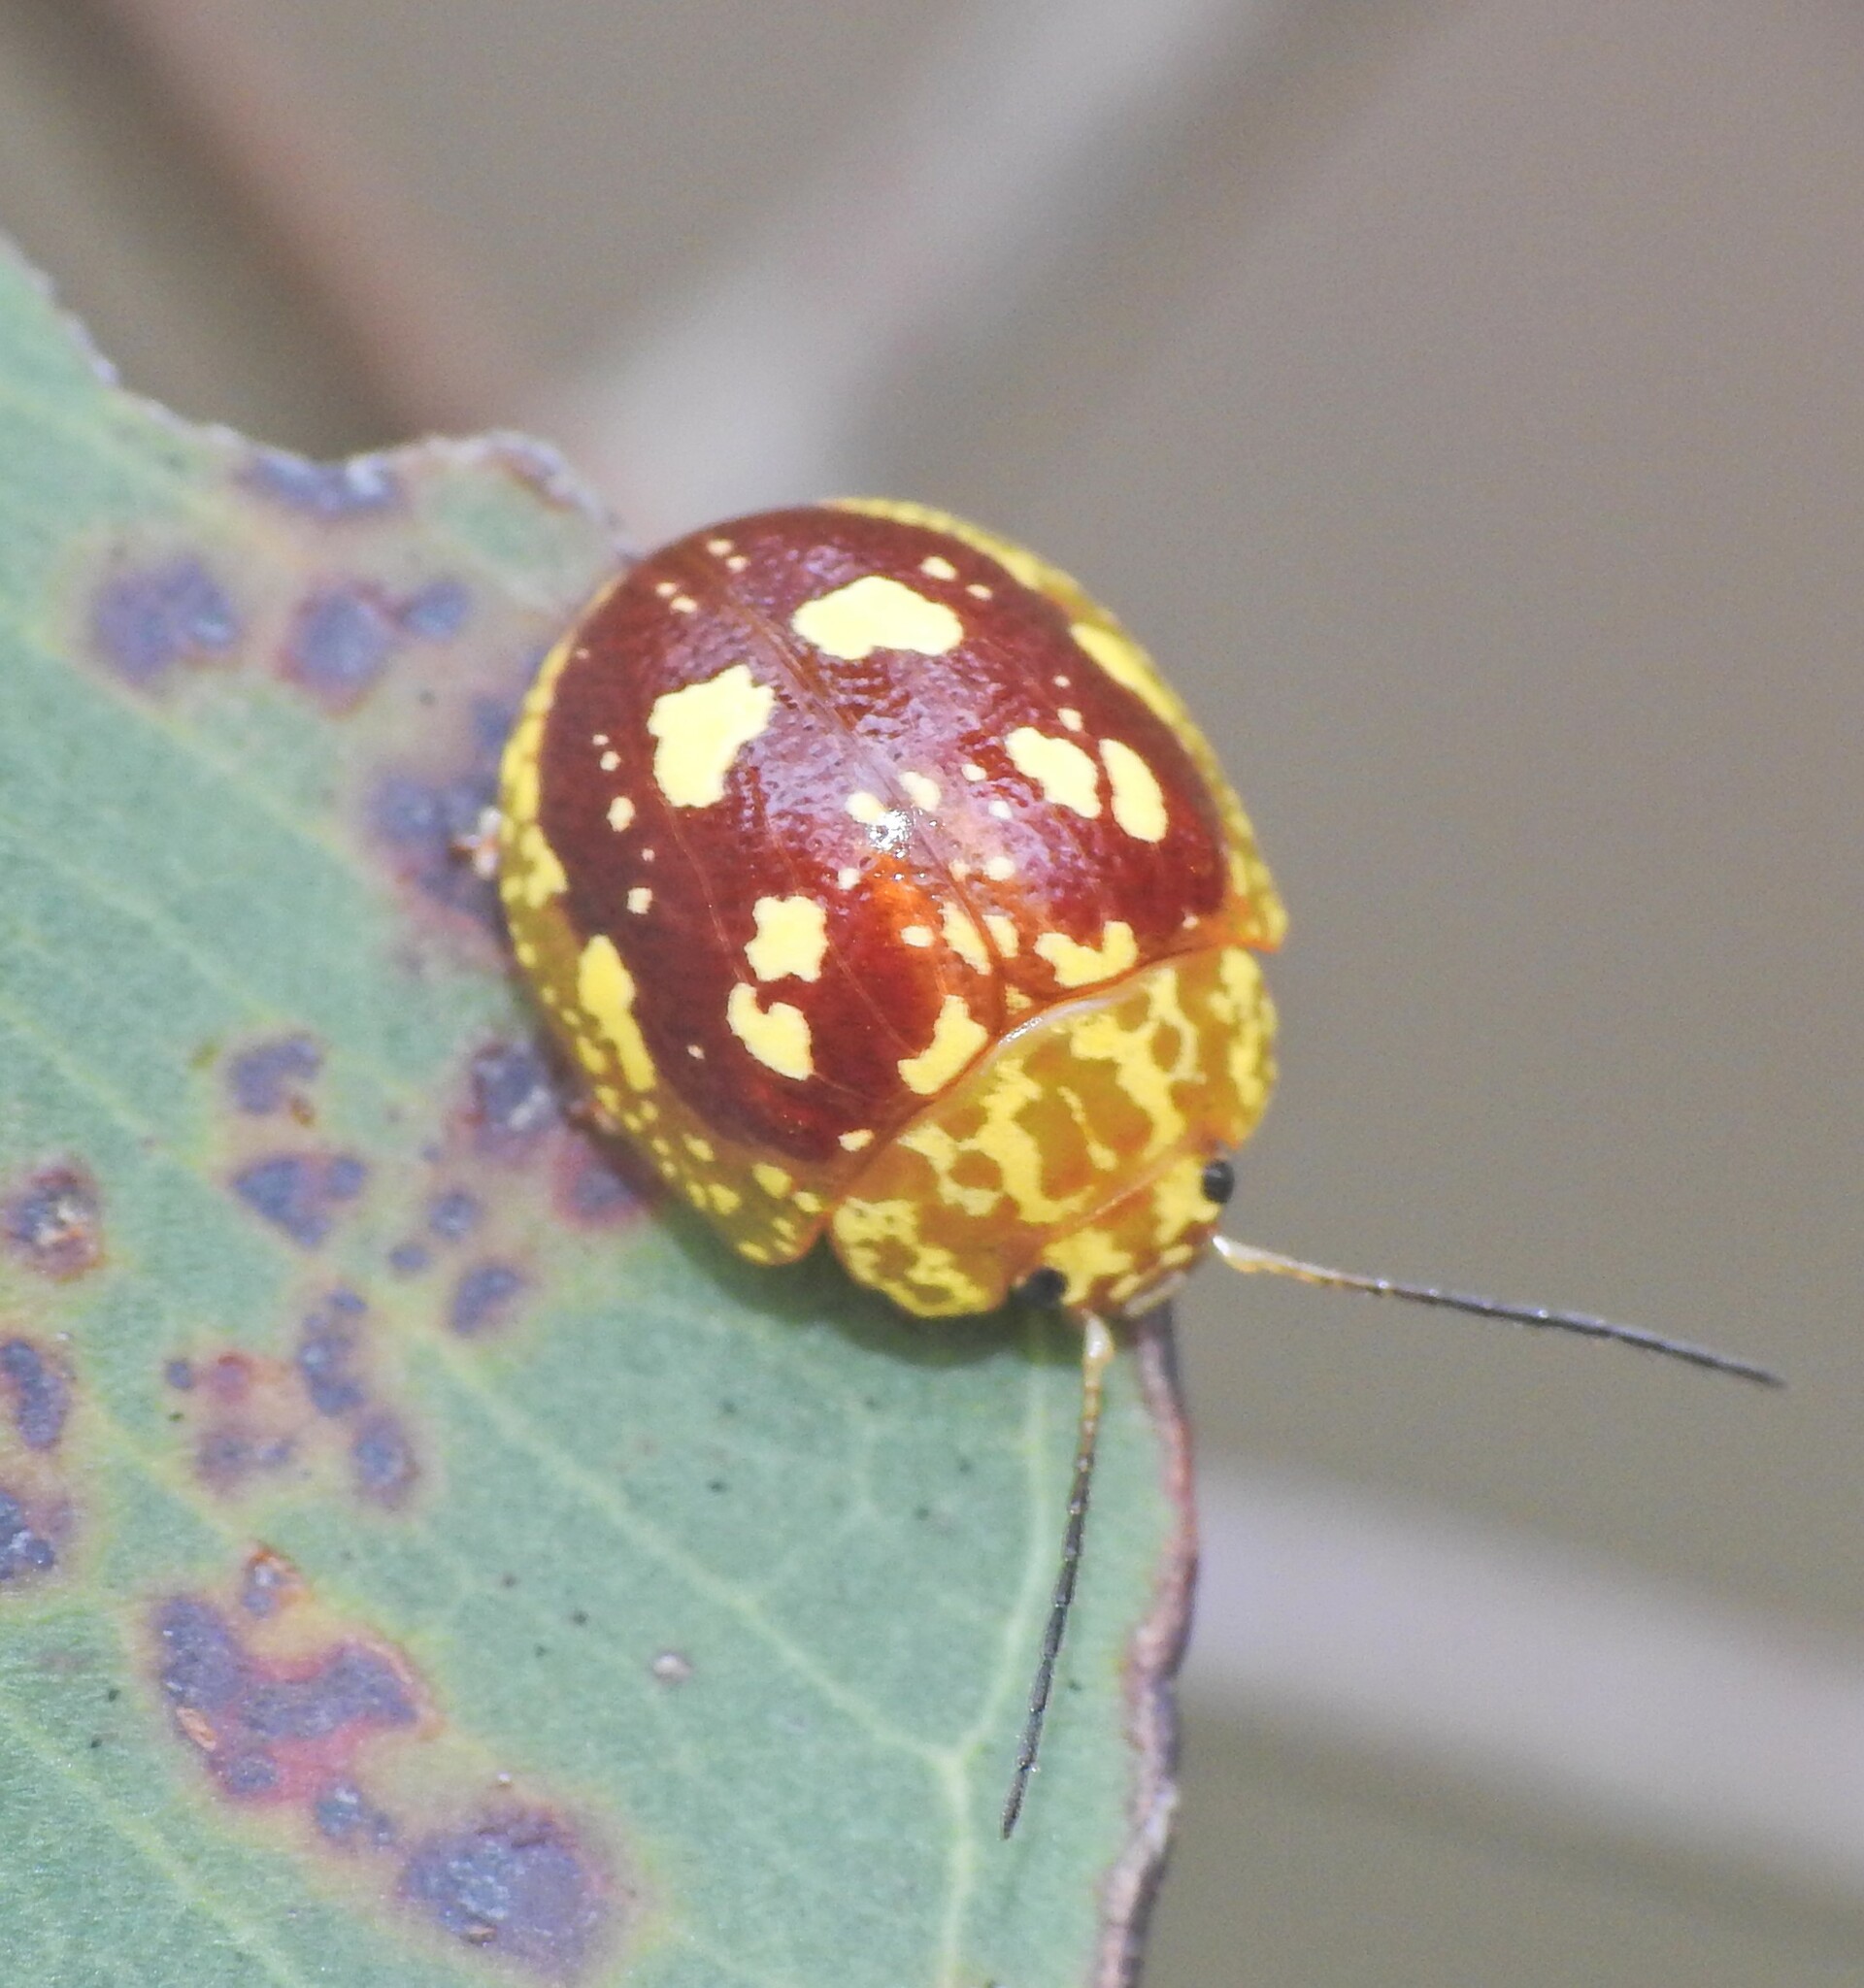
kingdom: Animalia
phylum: Arthropoda
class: Insecta
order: Coleoptera
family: Chrysomelidae
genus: Paropsis
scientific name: Paropsis maculata
